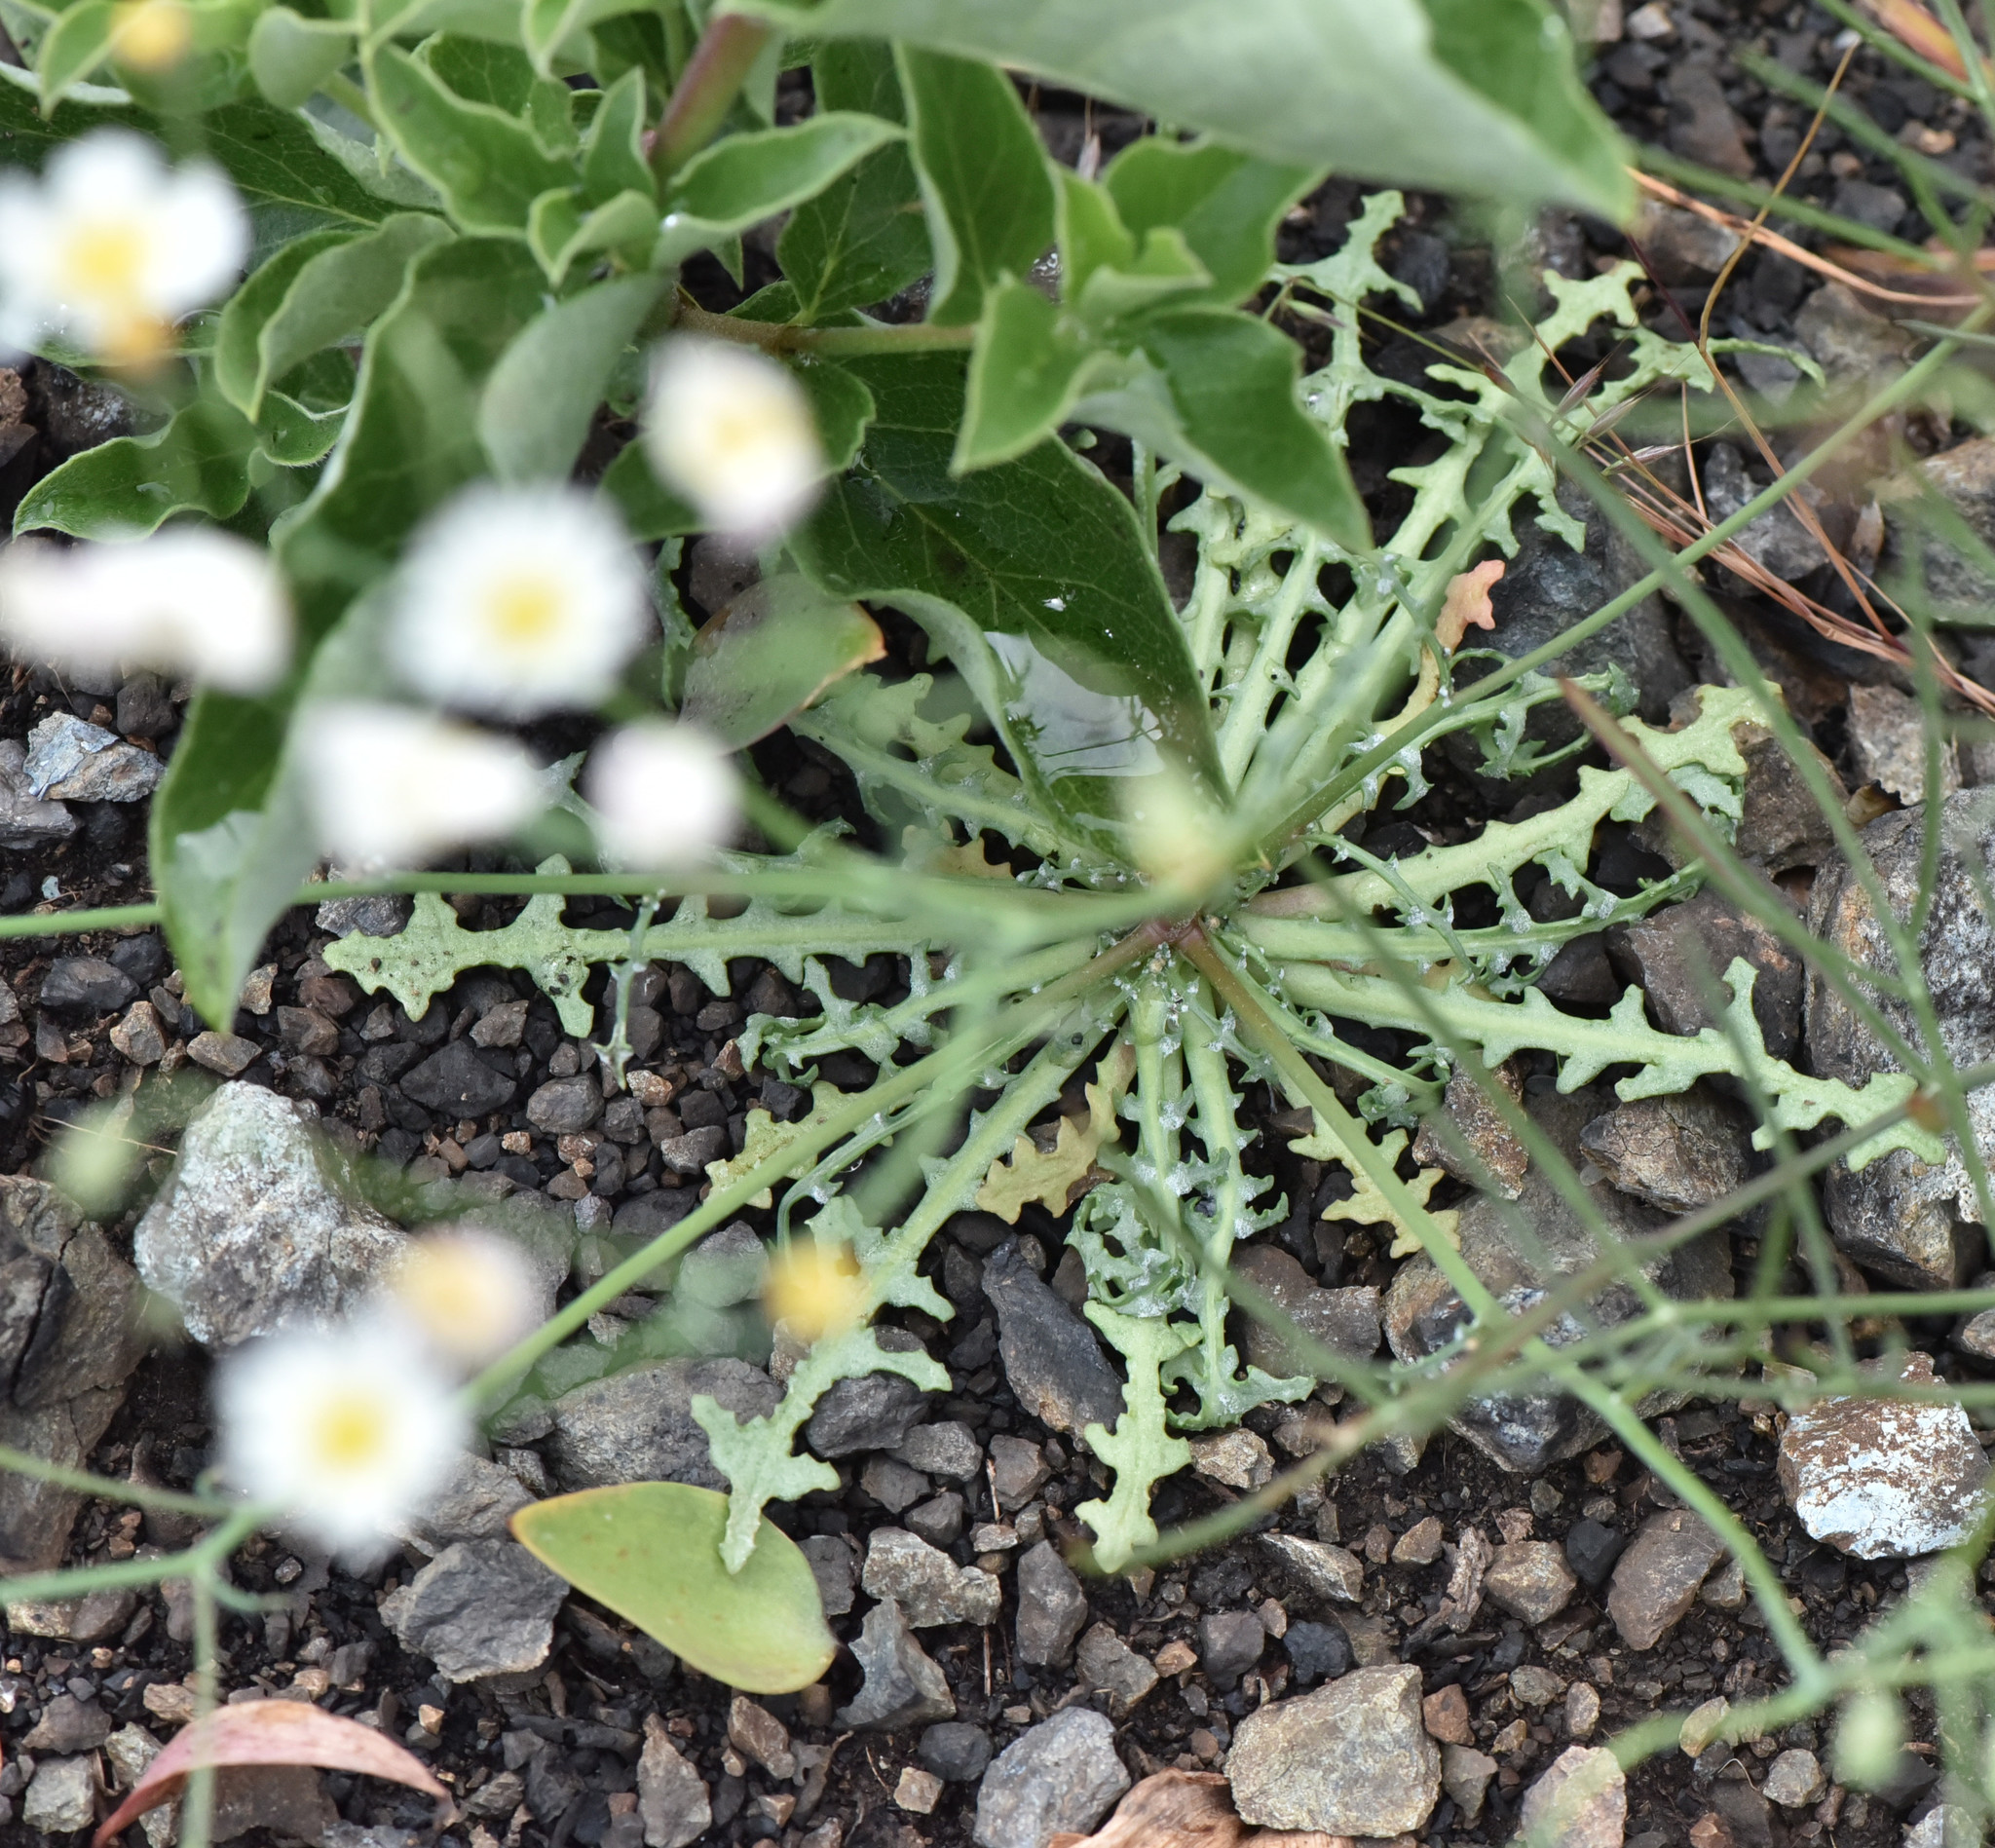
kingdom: Plantae
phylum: Tracheophyta
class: Magnoliopsida
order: Asterales
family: Asteraceae
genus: Malacothrix
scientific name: Malacothrix floccifera
